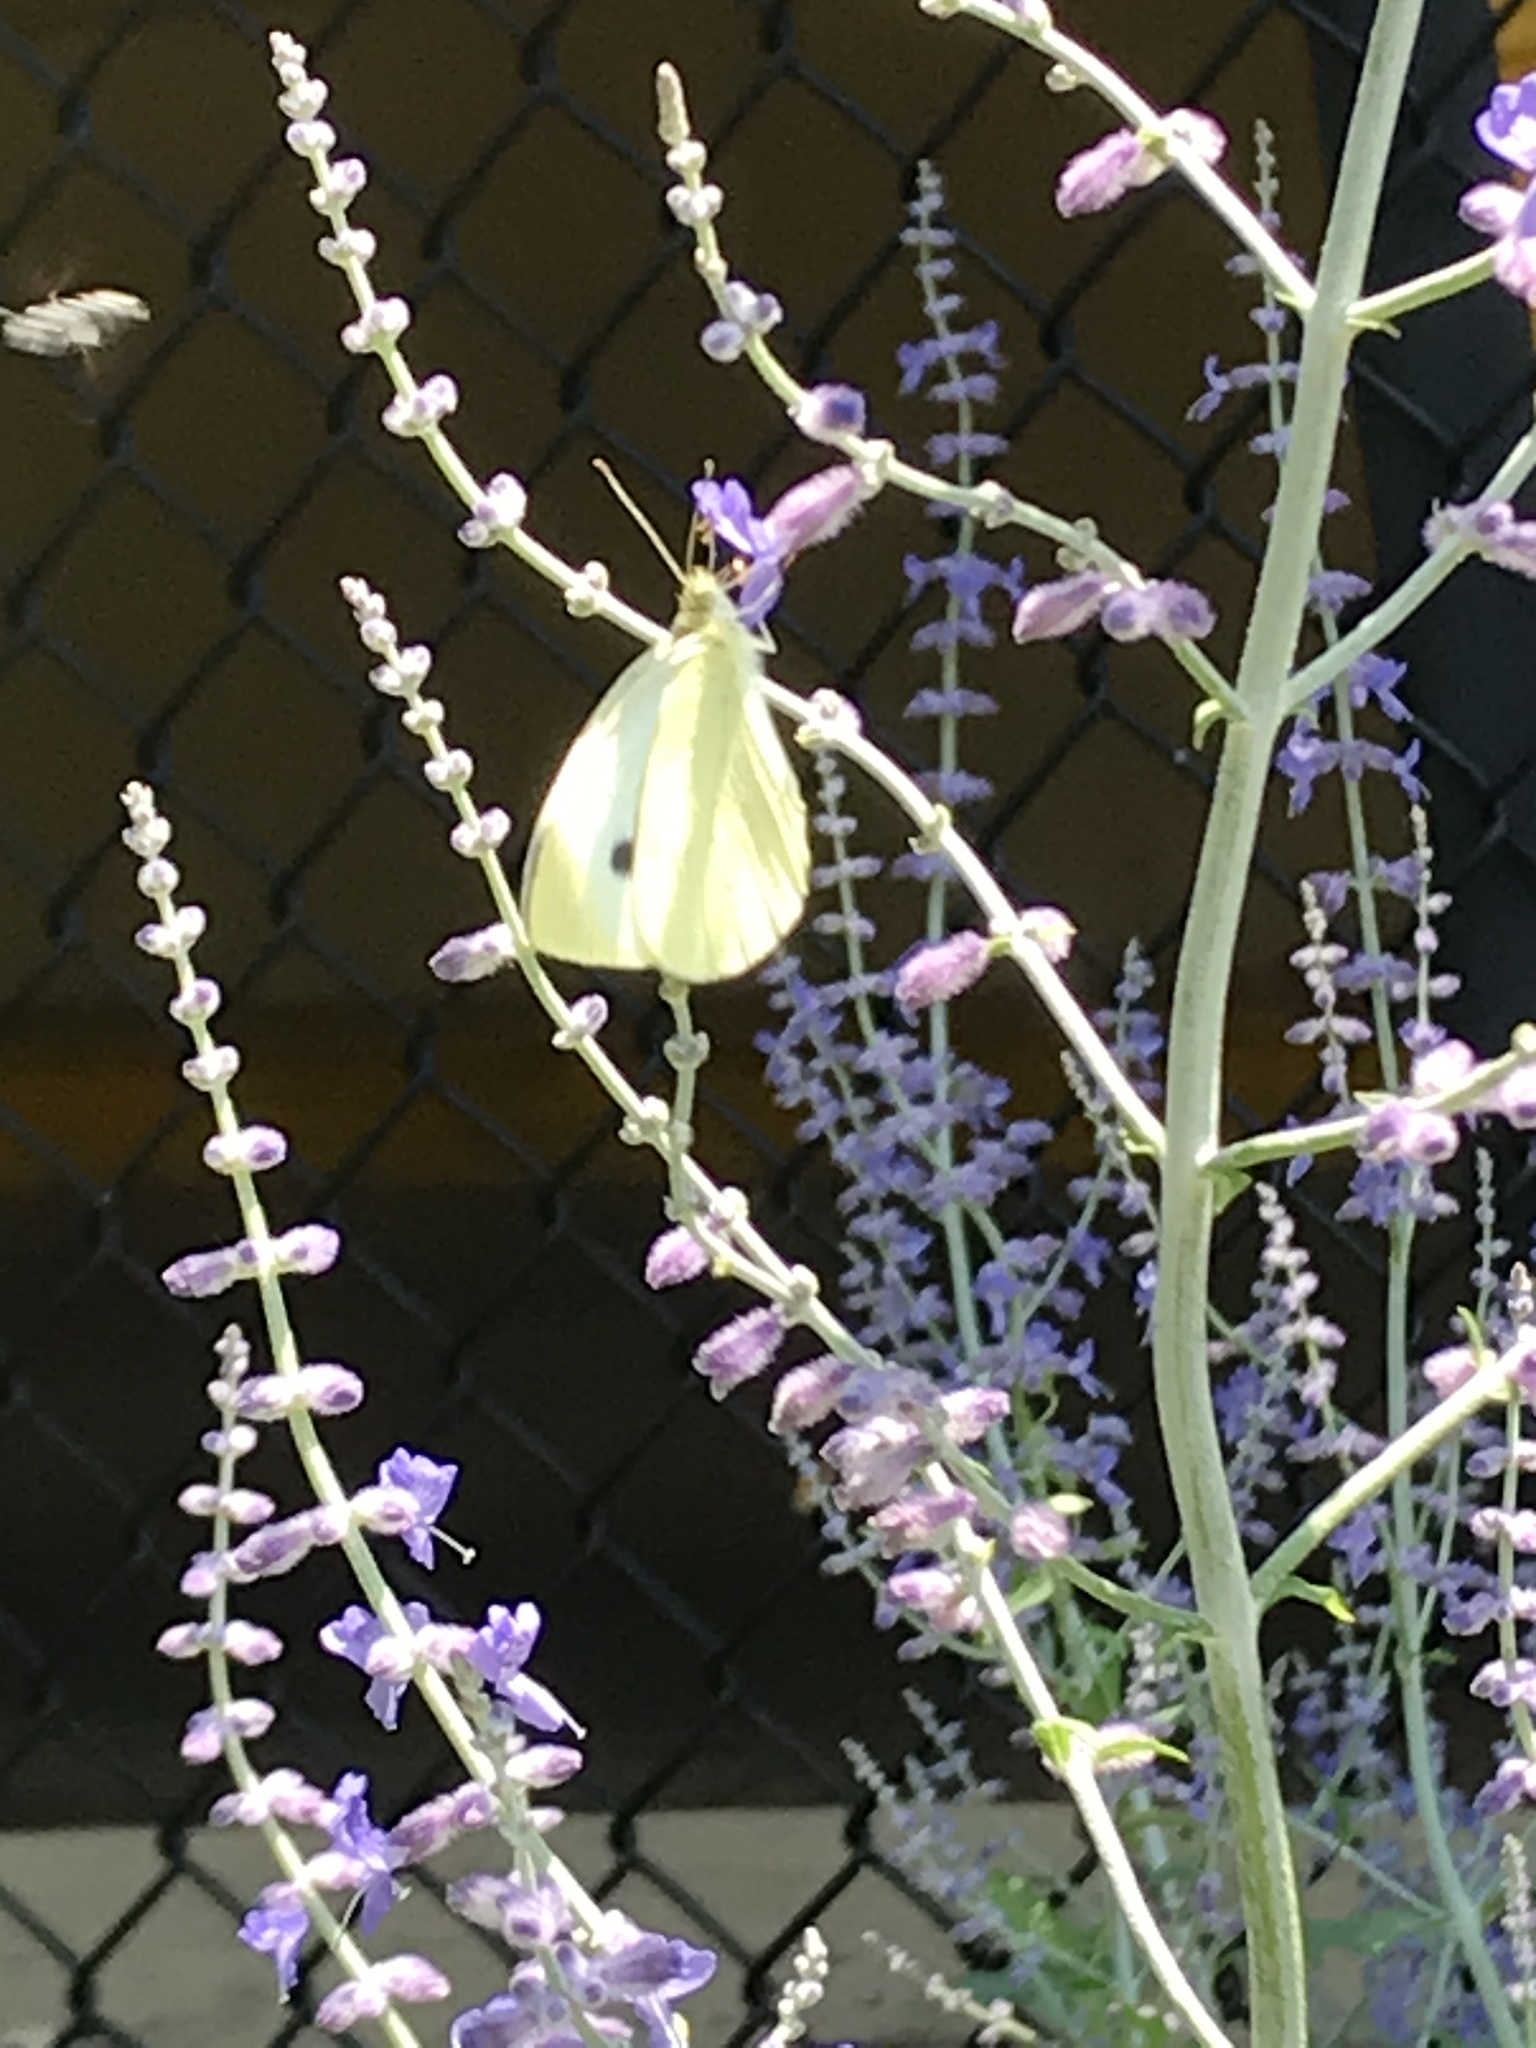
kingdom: Animalia
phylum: Arthropoda
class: Insecta
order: Lepidoptera
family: Pieridae
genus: Pieris
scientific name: Pieris rapae
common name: Small white
